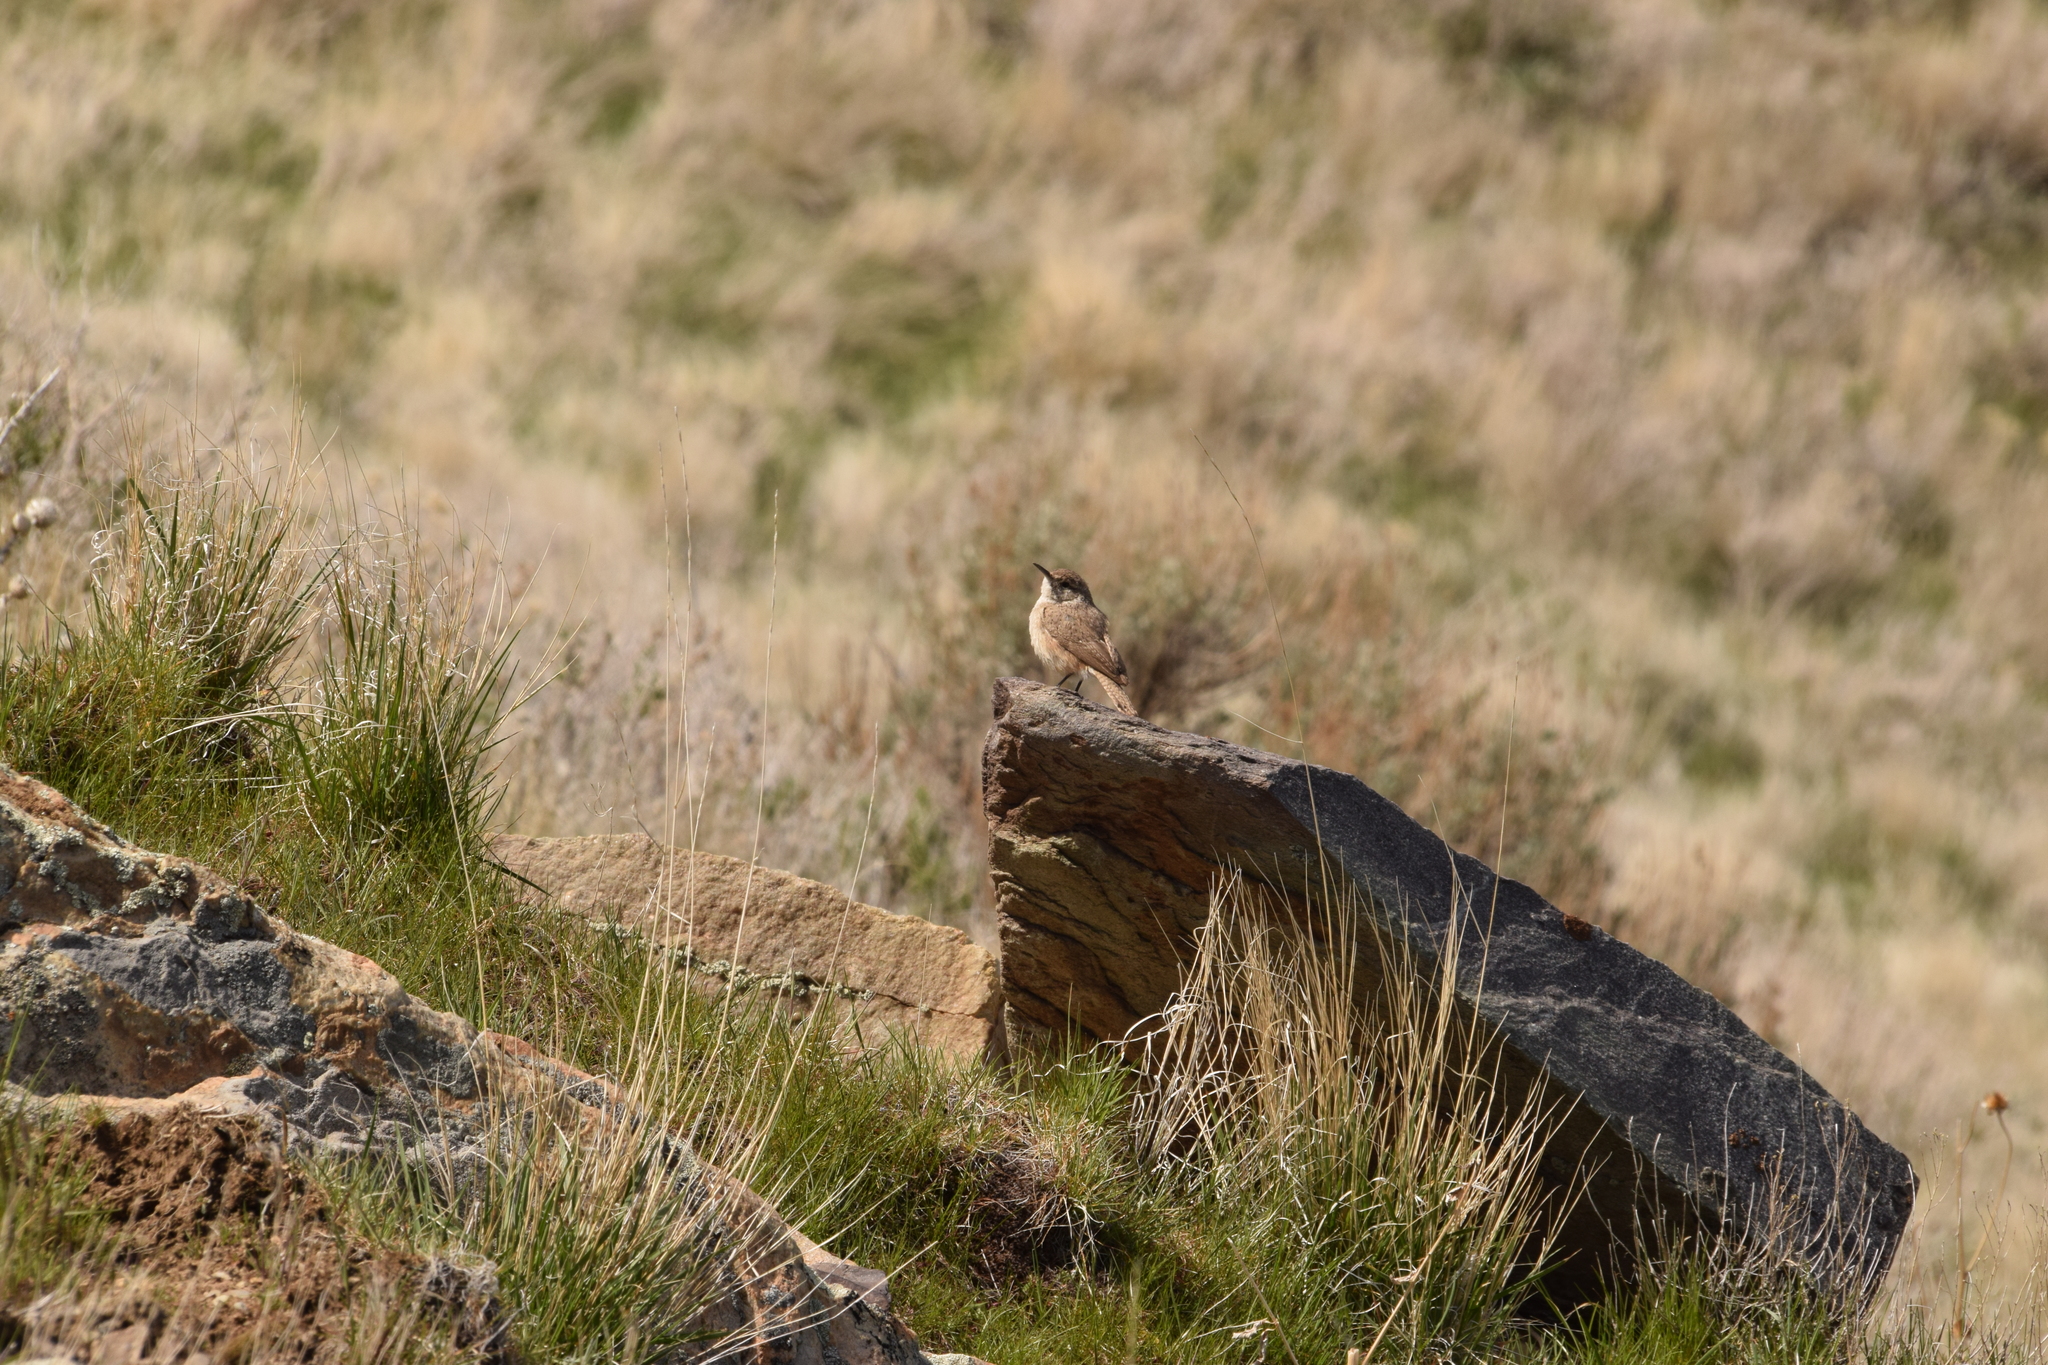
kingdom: Animalia
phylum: Chordata
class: Aves
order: Passeriformes
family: Troglodytidae
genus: Salpinctes
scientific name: Salpinctes obsoletus
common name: Rock wren
